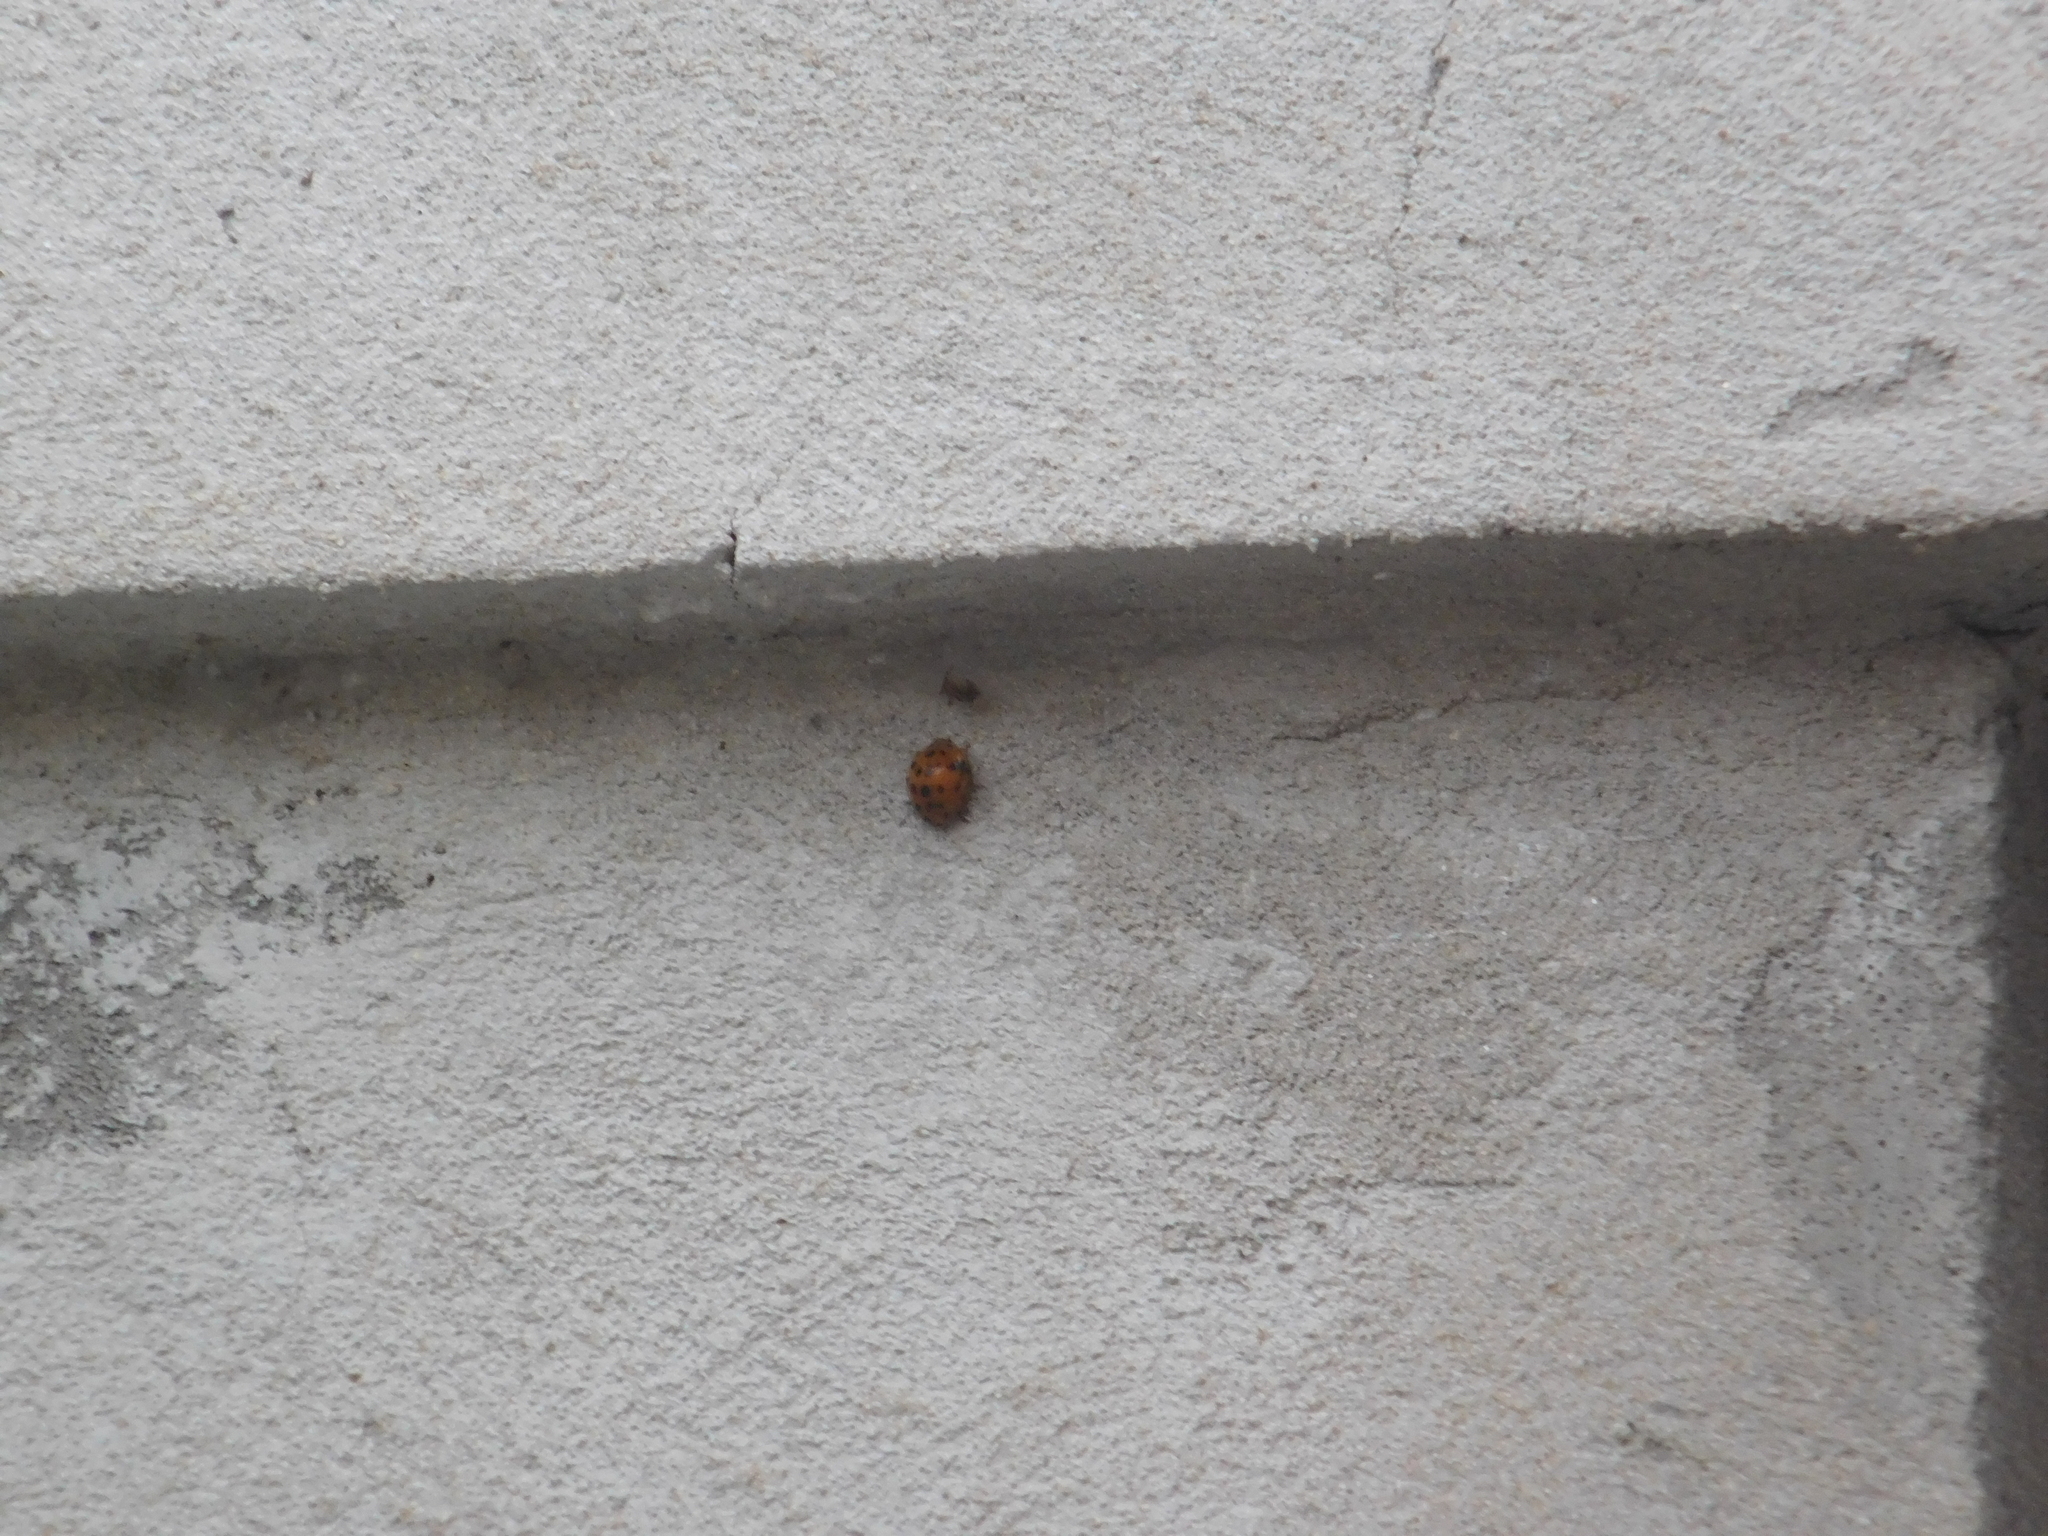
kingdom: Animalia
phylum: Arthropoda
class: Insecta
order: Coleoptera
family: Coccinellidae
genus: Henosepilachna
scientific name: Henosepilachna vigintioctopunctata
